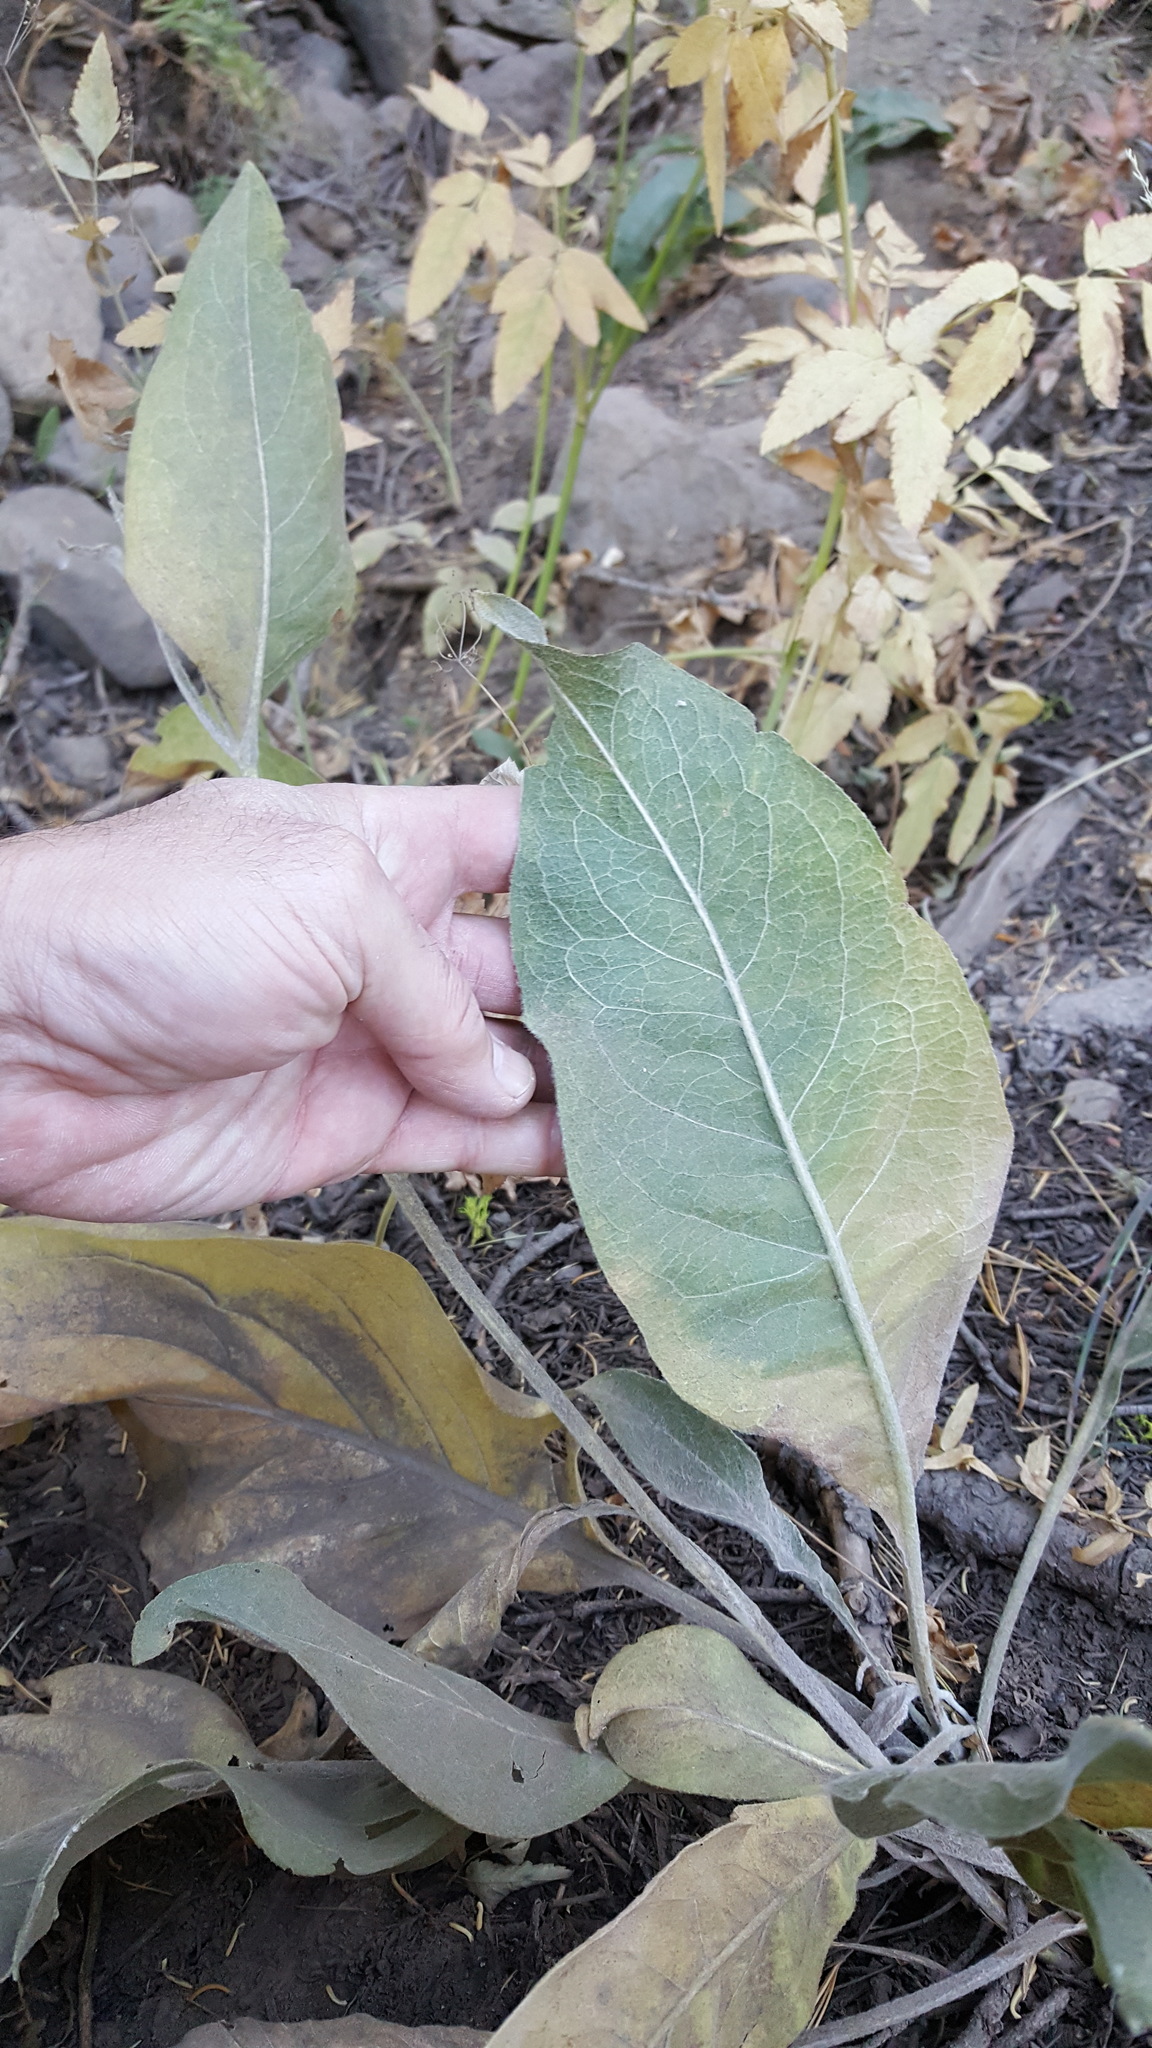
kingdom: Plantae
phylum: Tracheophyta
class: Magnoliopsida
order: Asterales
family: Asteraceae
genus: Wyethia
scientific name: Wyethia mollis
